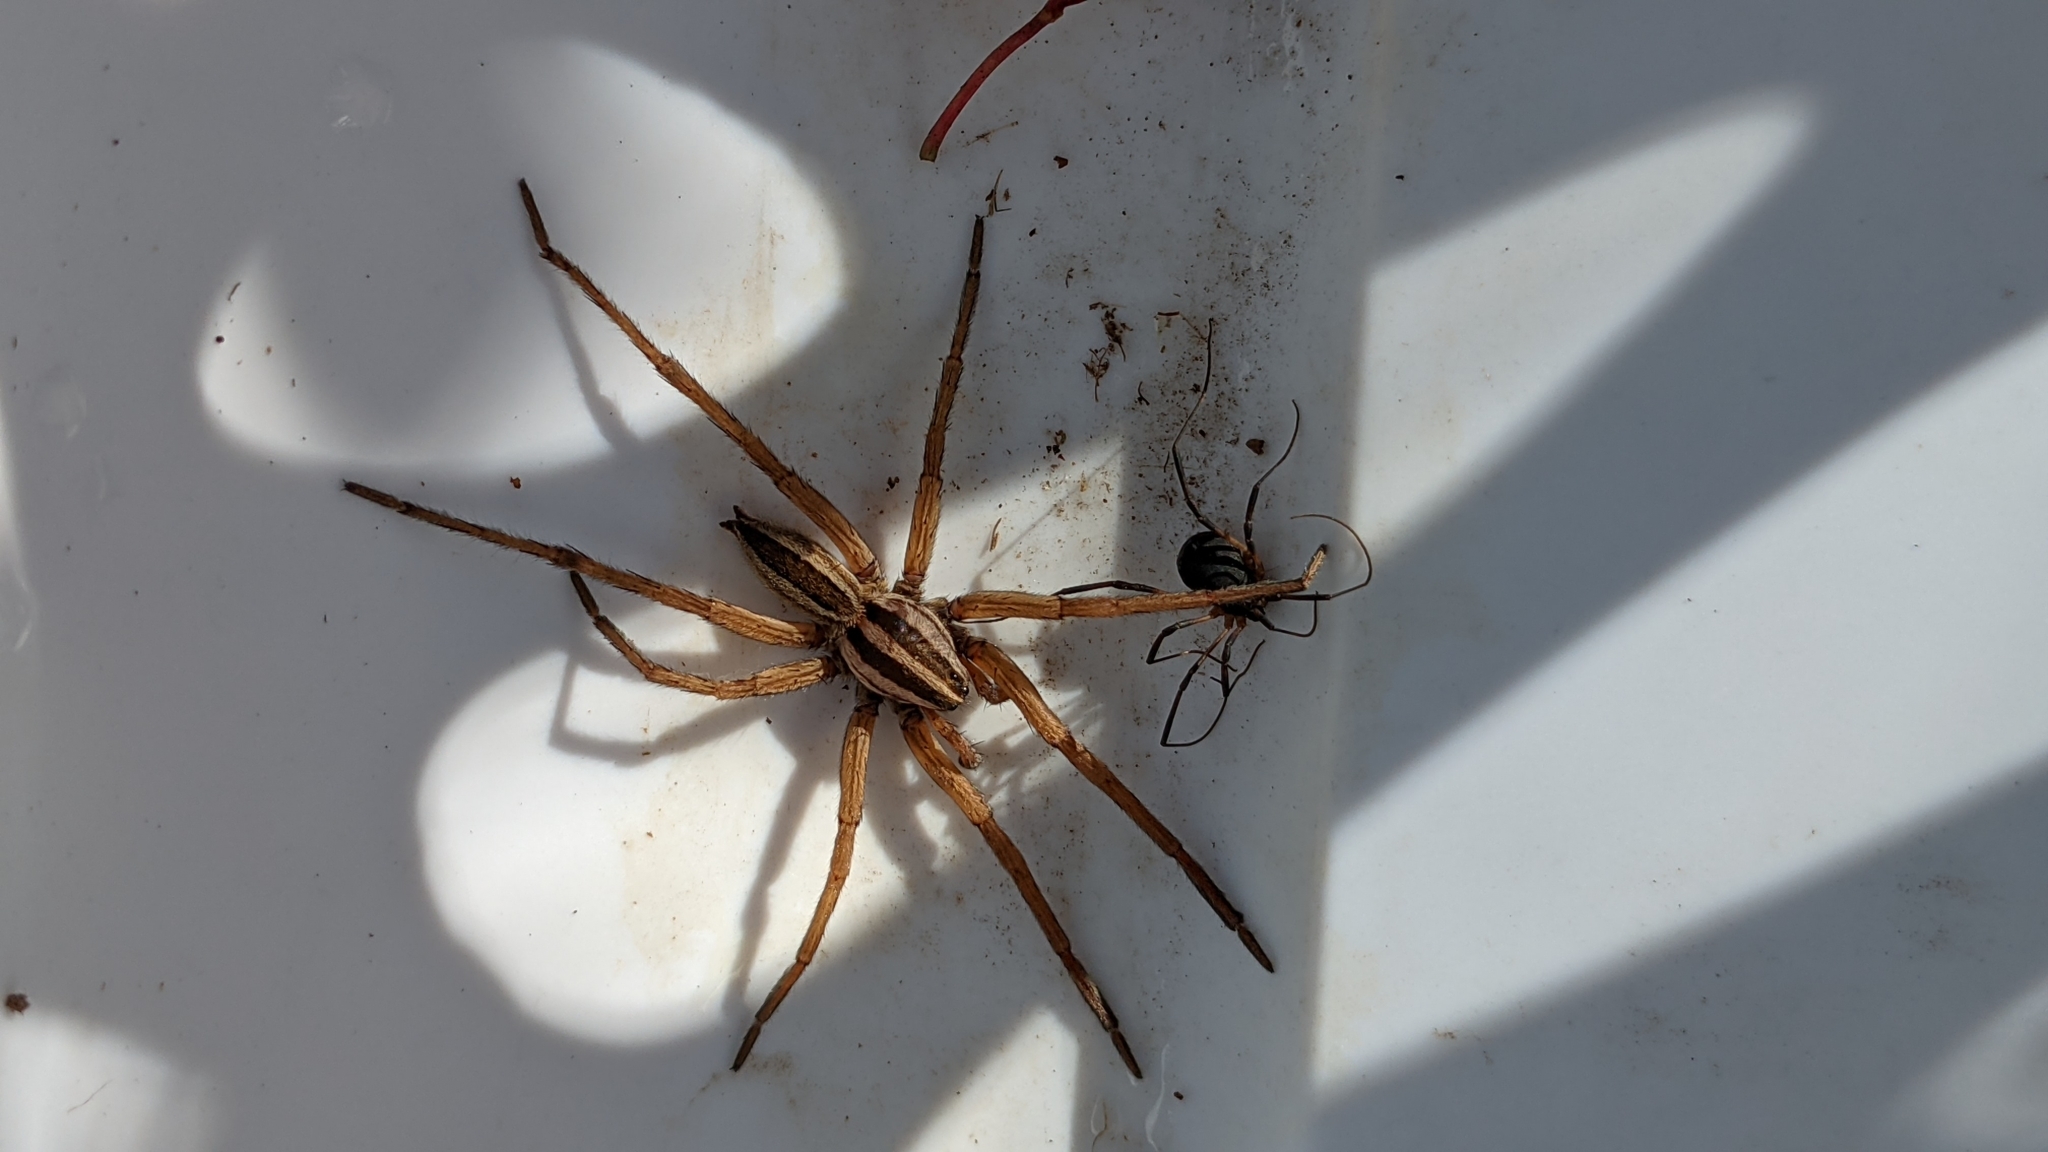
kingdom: Animalia
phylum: Arthropoda
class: Arachnida
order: Araneae
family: Lycosidae
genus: Rabidosa
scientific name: Rabidosa punctulata
